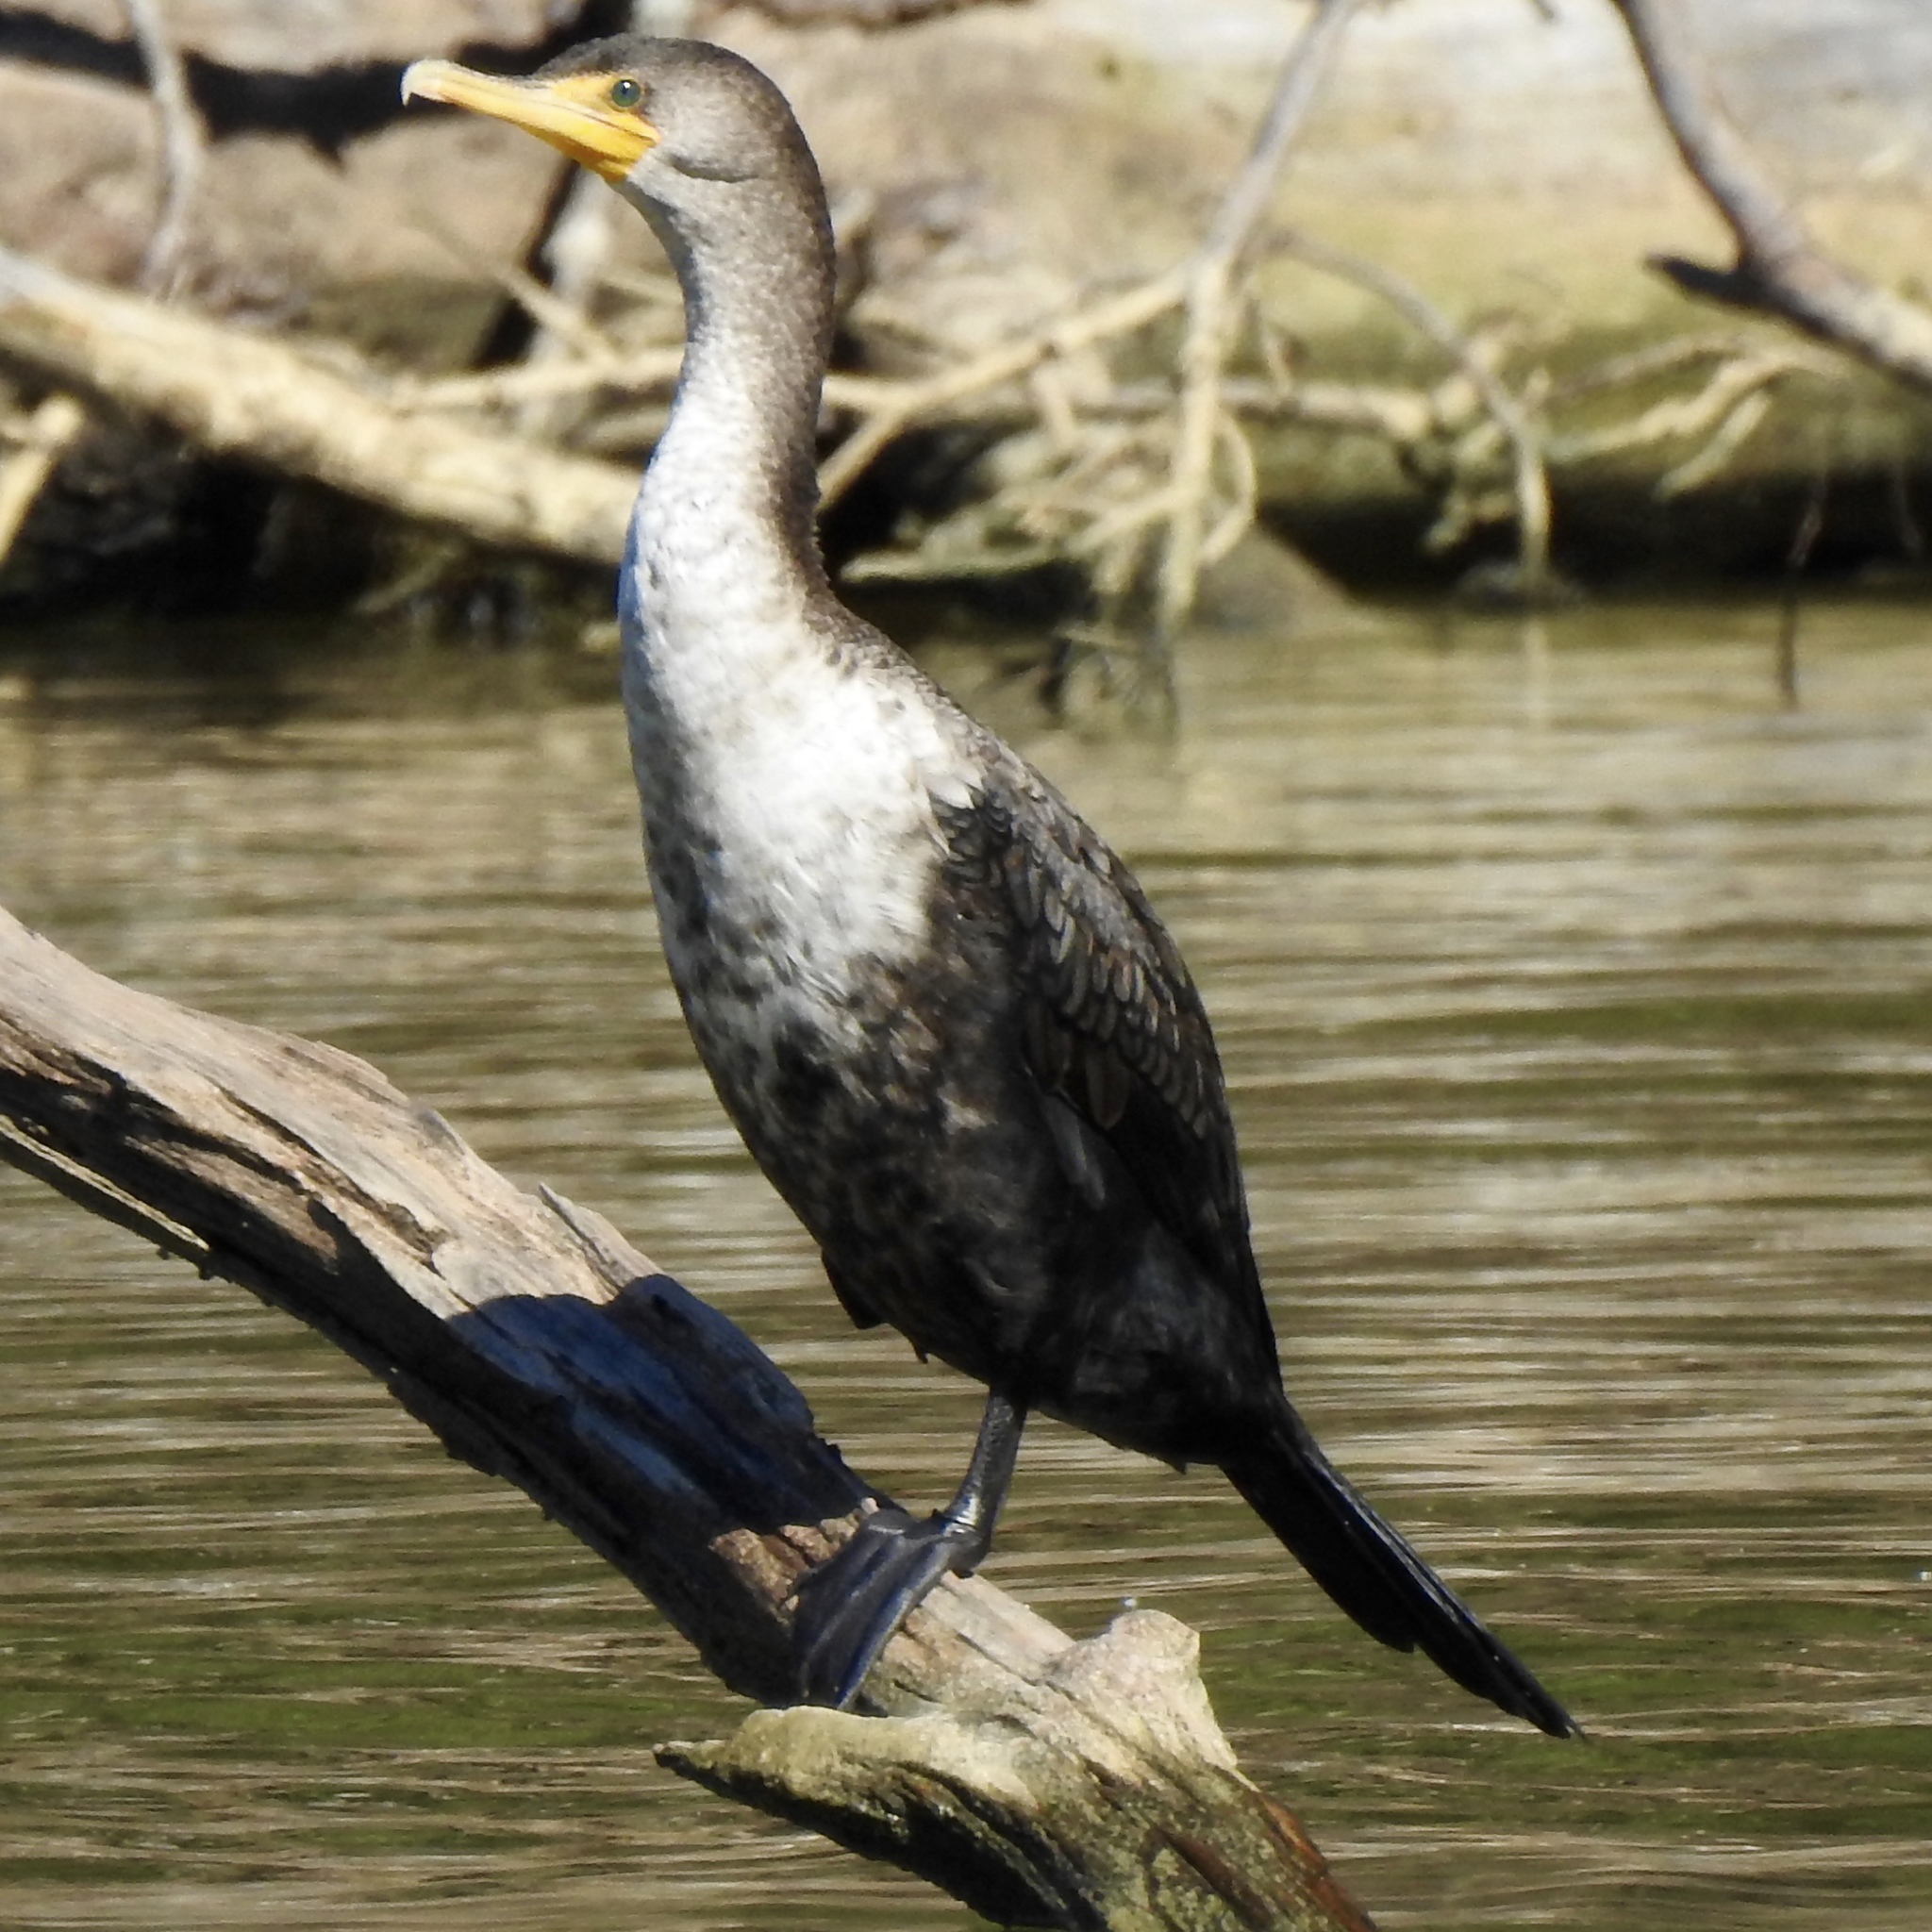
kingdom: Animalia
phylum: Chordata
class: Aves
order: Suliformes
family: Phalacrocoracidae
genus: Phalacrocorax
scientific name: Phalacrocorax auritus
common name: Double-crested cormorant
